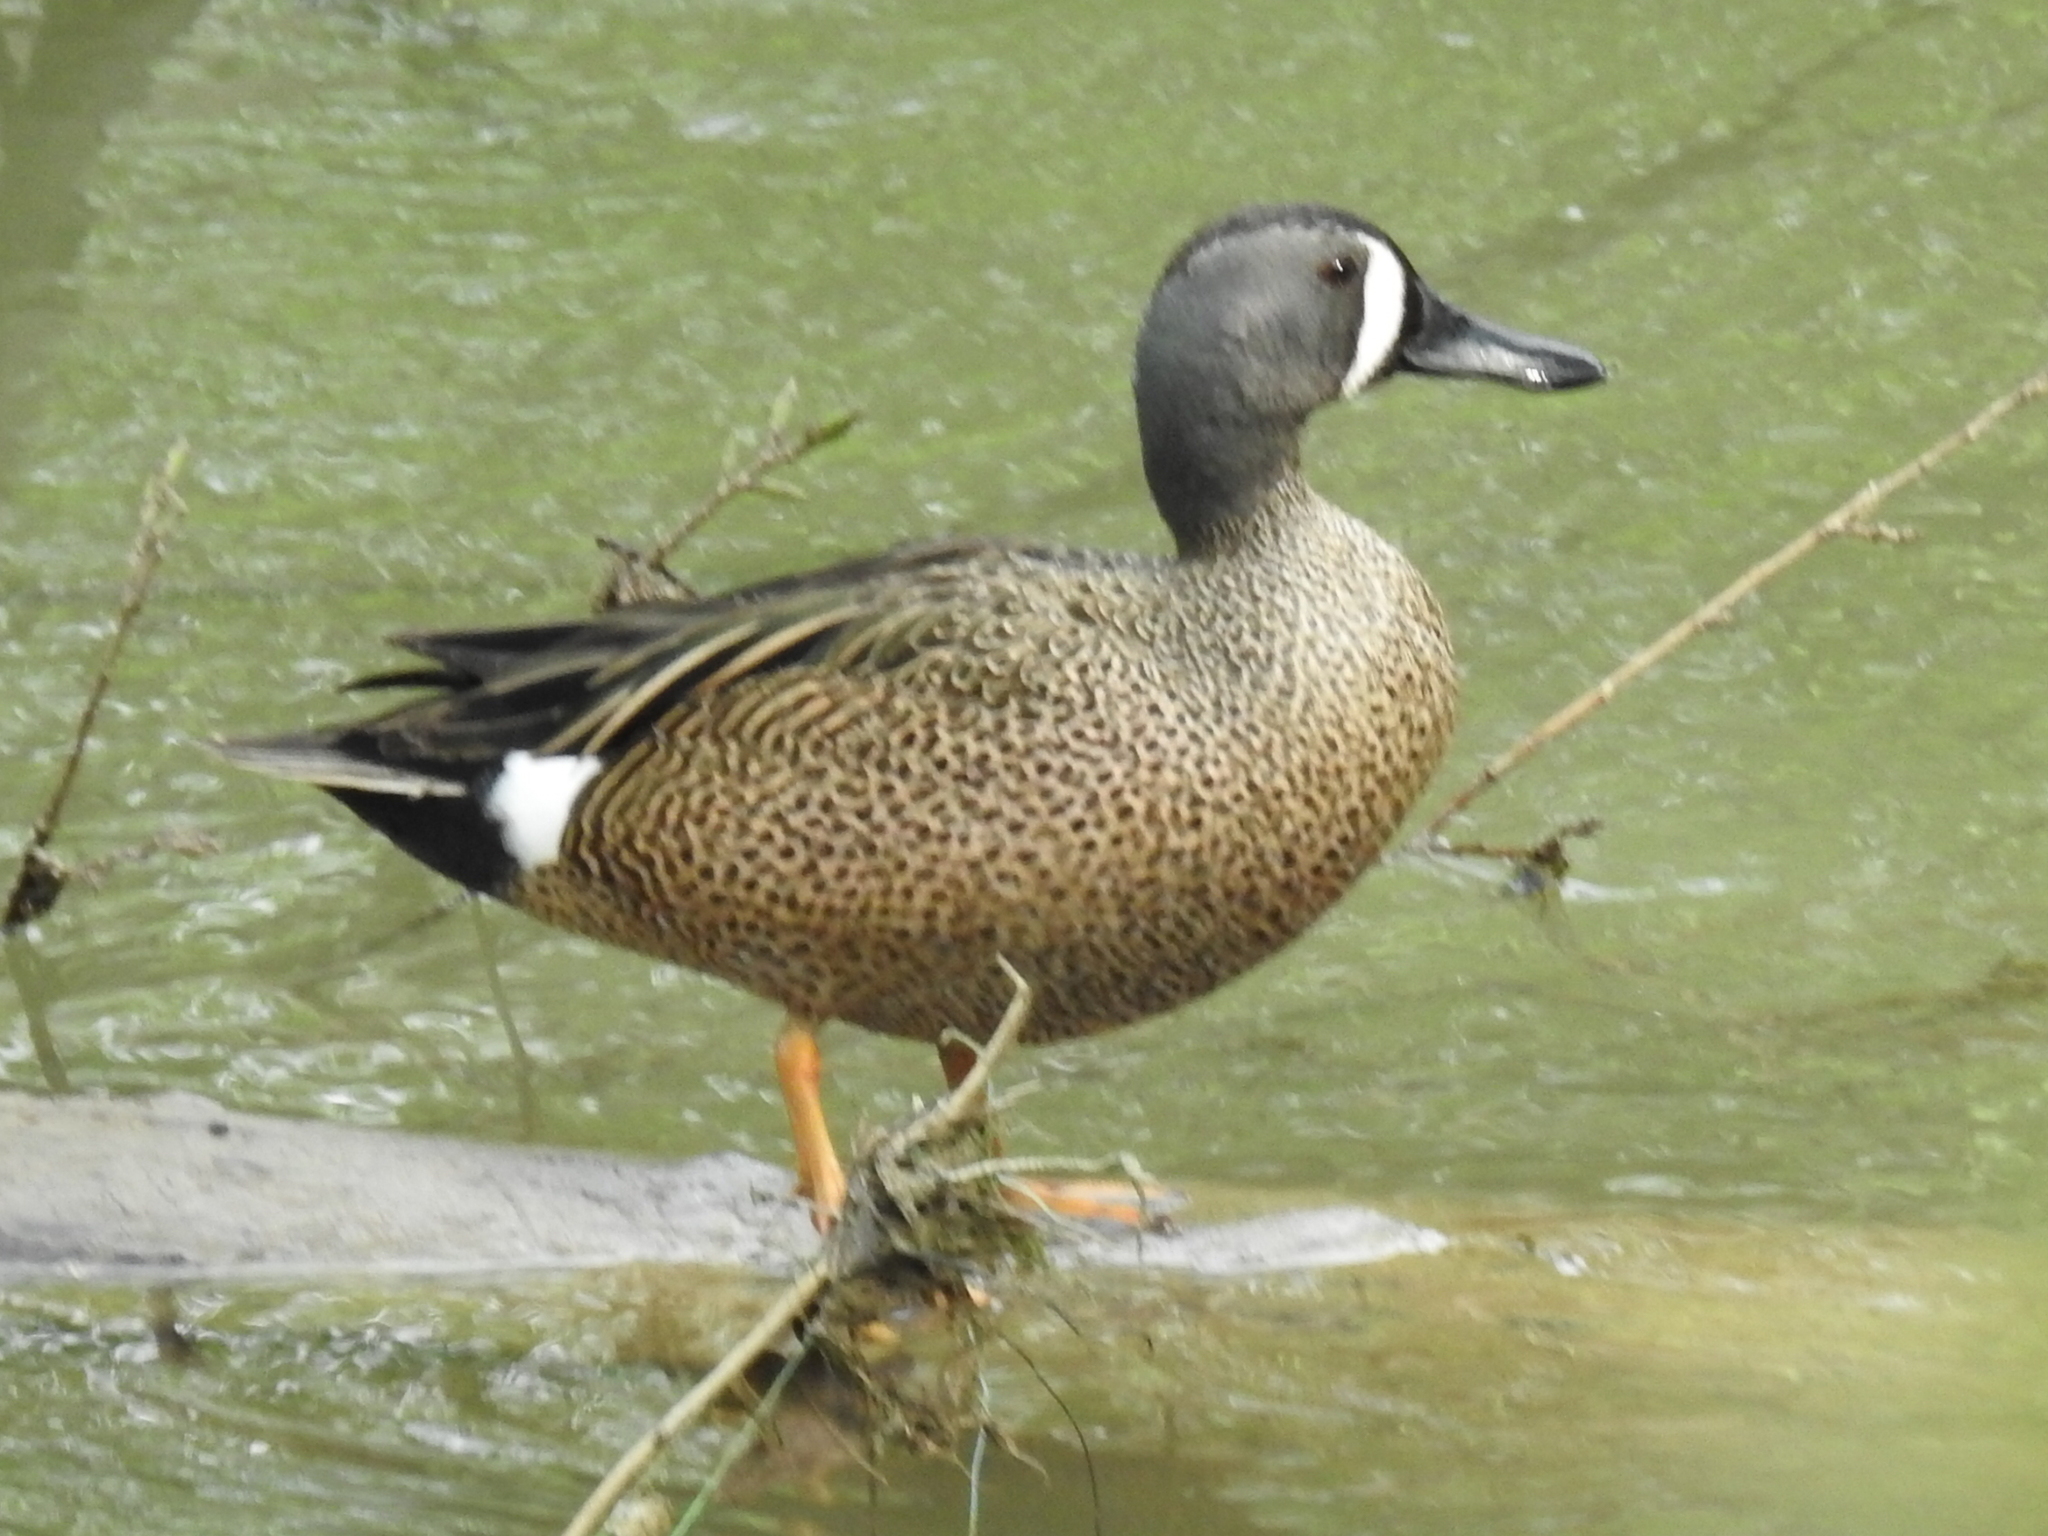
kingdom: Animalia
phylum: Chordata
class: Aves
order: Anseriformes
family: Anatidae
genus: Spatula
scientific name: Spatula discors
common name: Blue-winged teal
